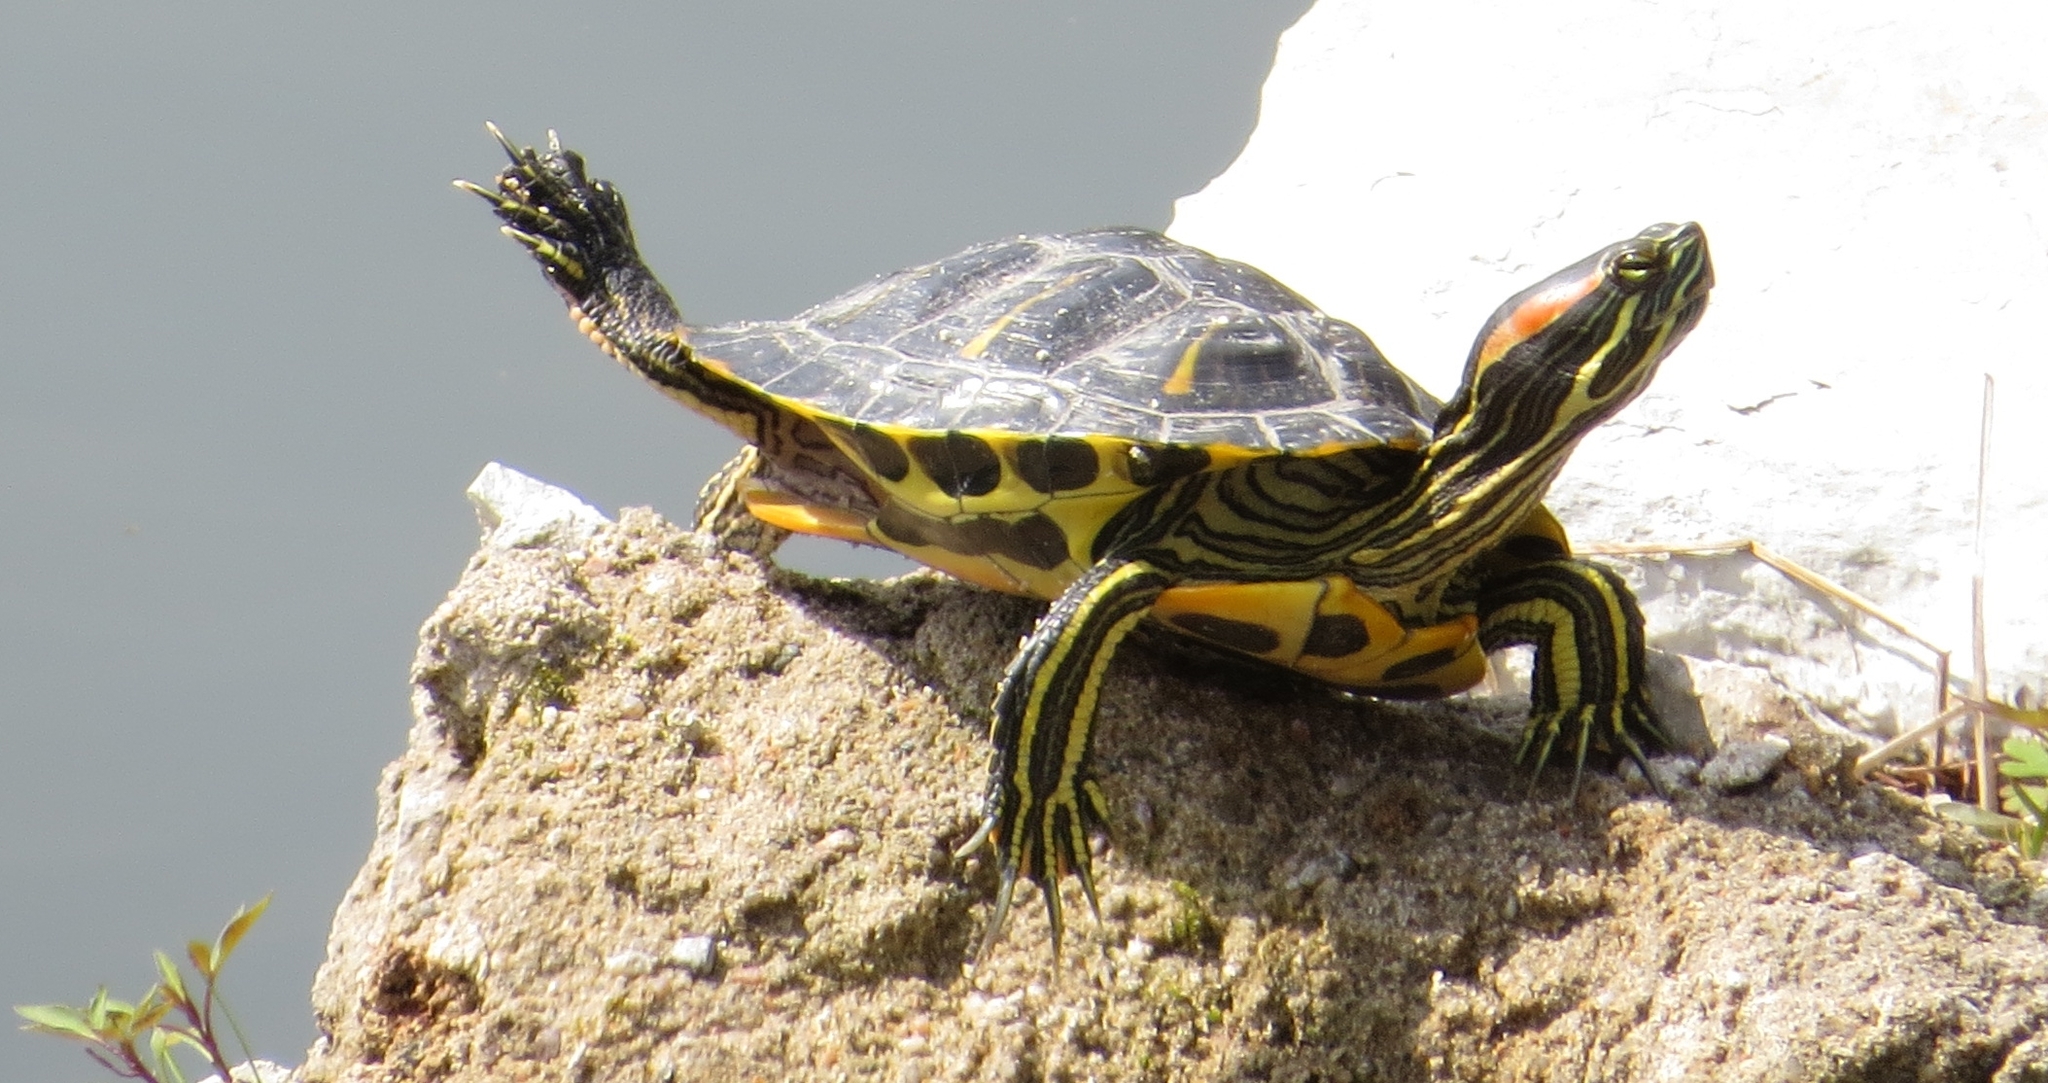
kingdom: Animalia
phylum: Chordata
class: Testudines
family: Emydidae
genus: Trachemys
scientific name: Trachemys scripta
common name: Slider
